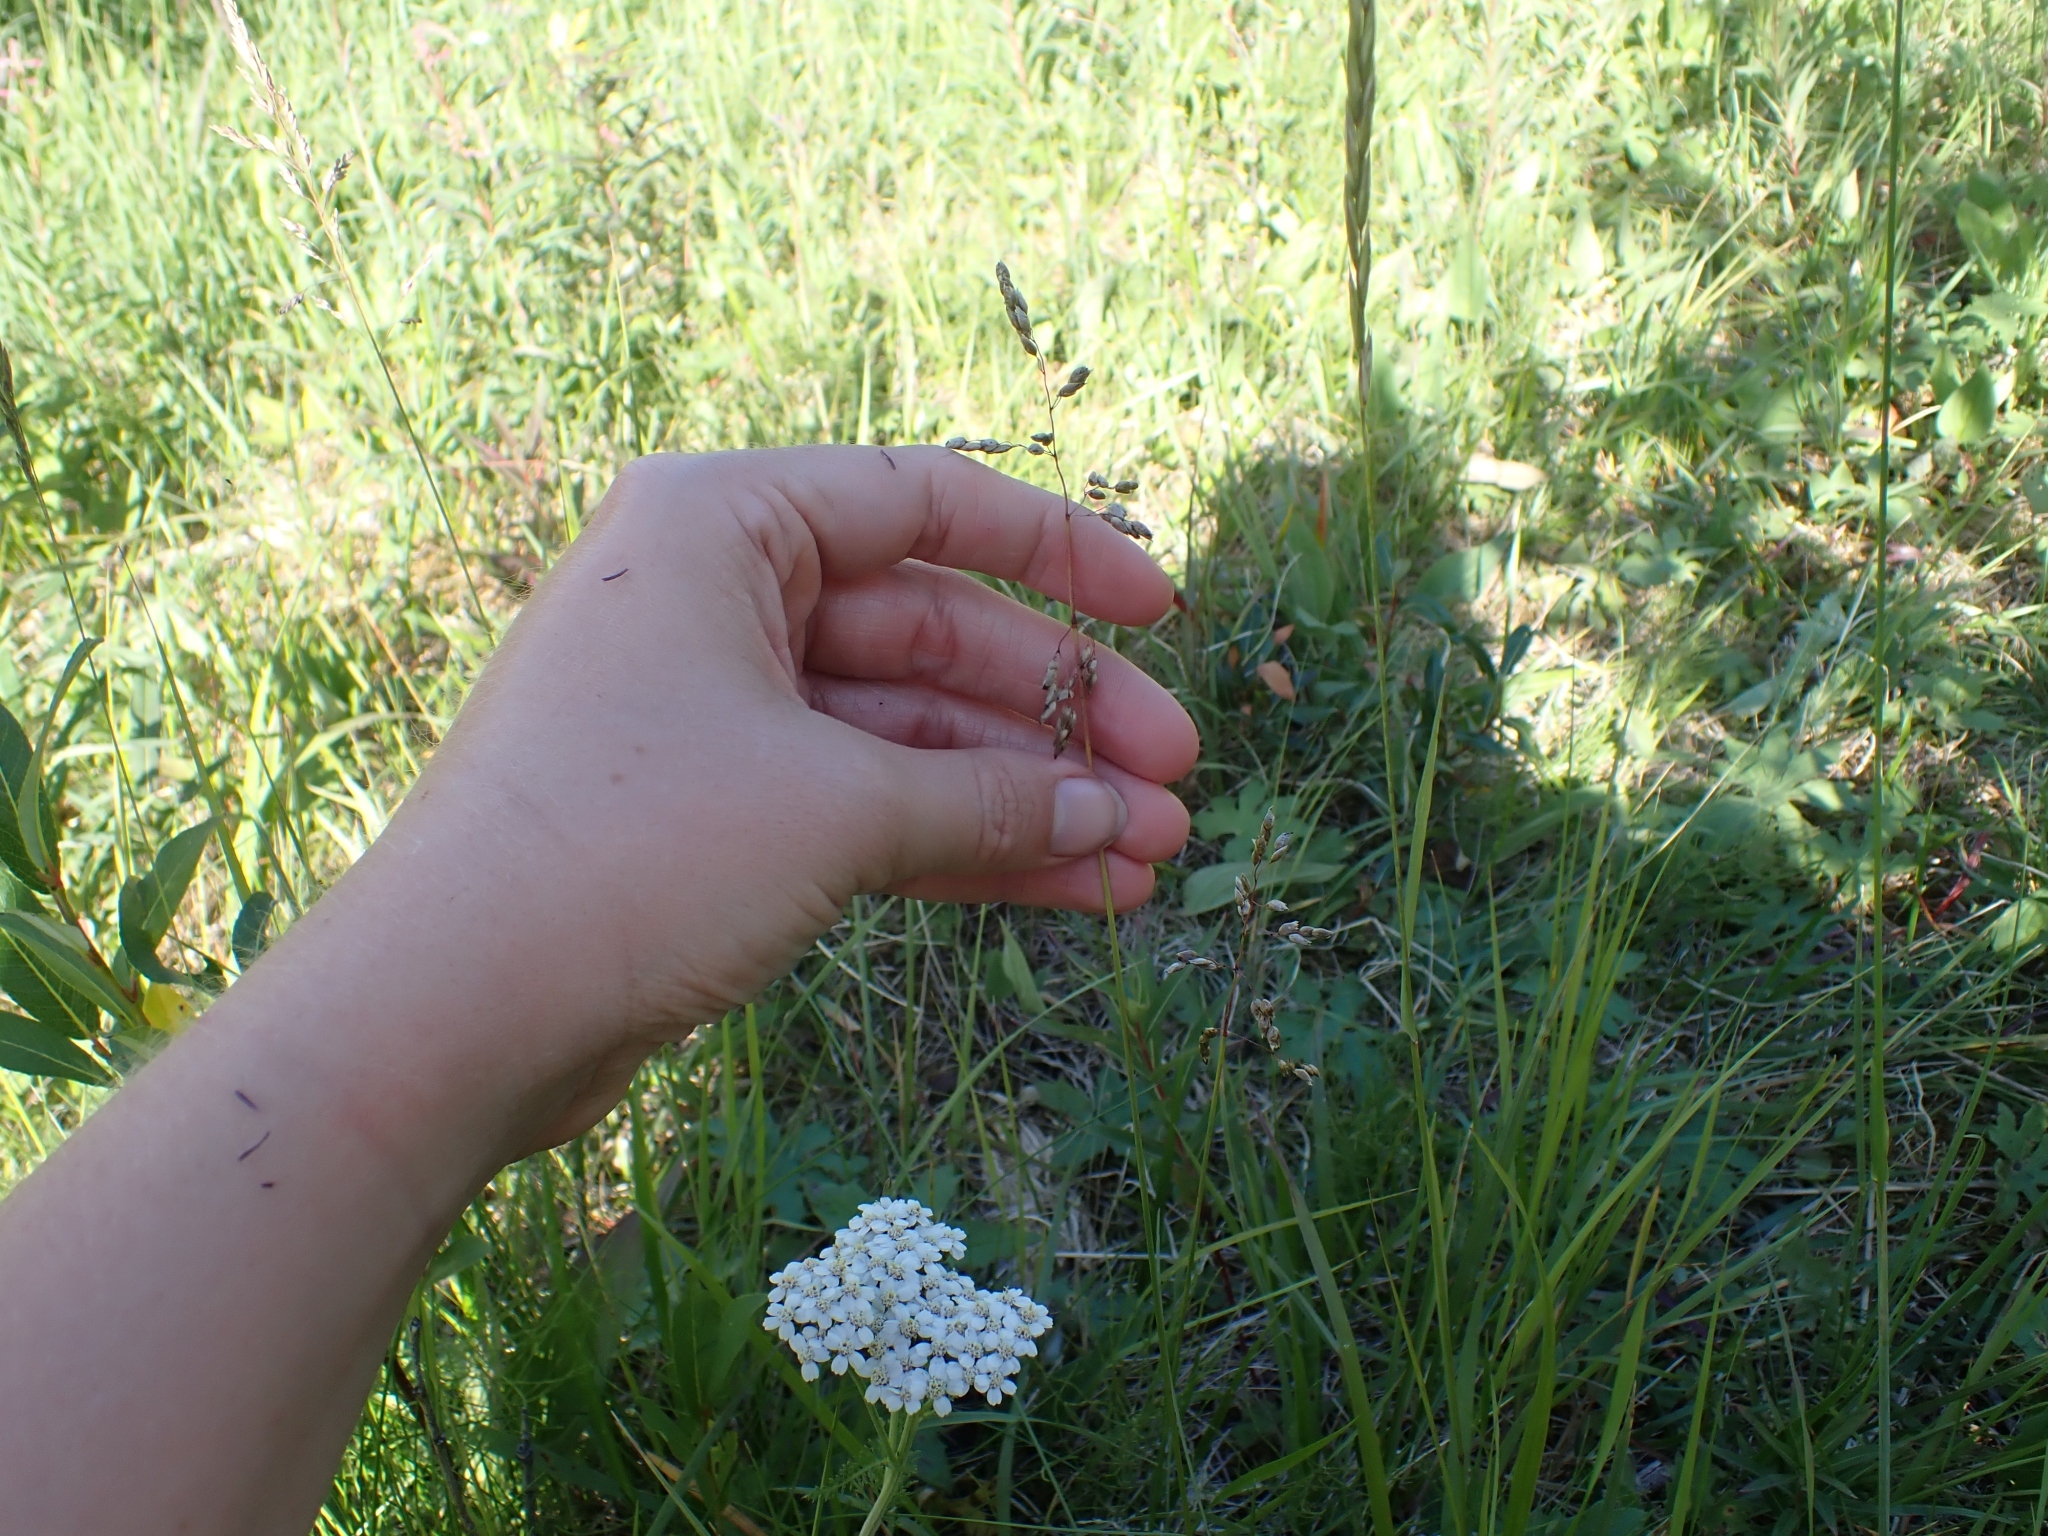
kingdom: Plantae
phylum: Tracheophyta
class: Liliopsida
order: Poales
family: Poaceae
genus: Anthoxanthum
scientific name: Anthoxanthum nitens
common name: Holy grass
